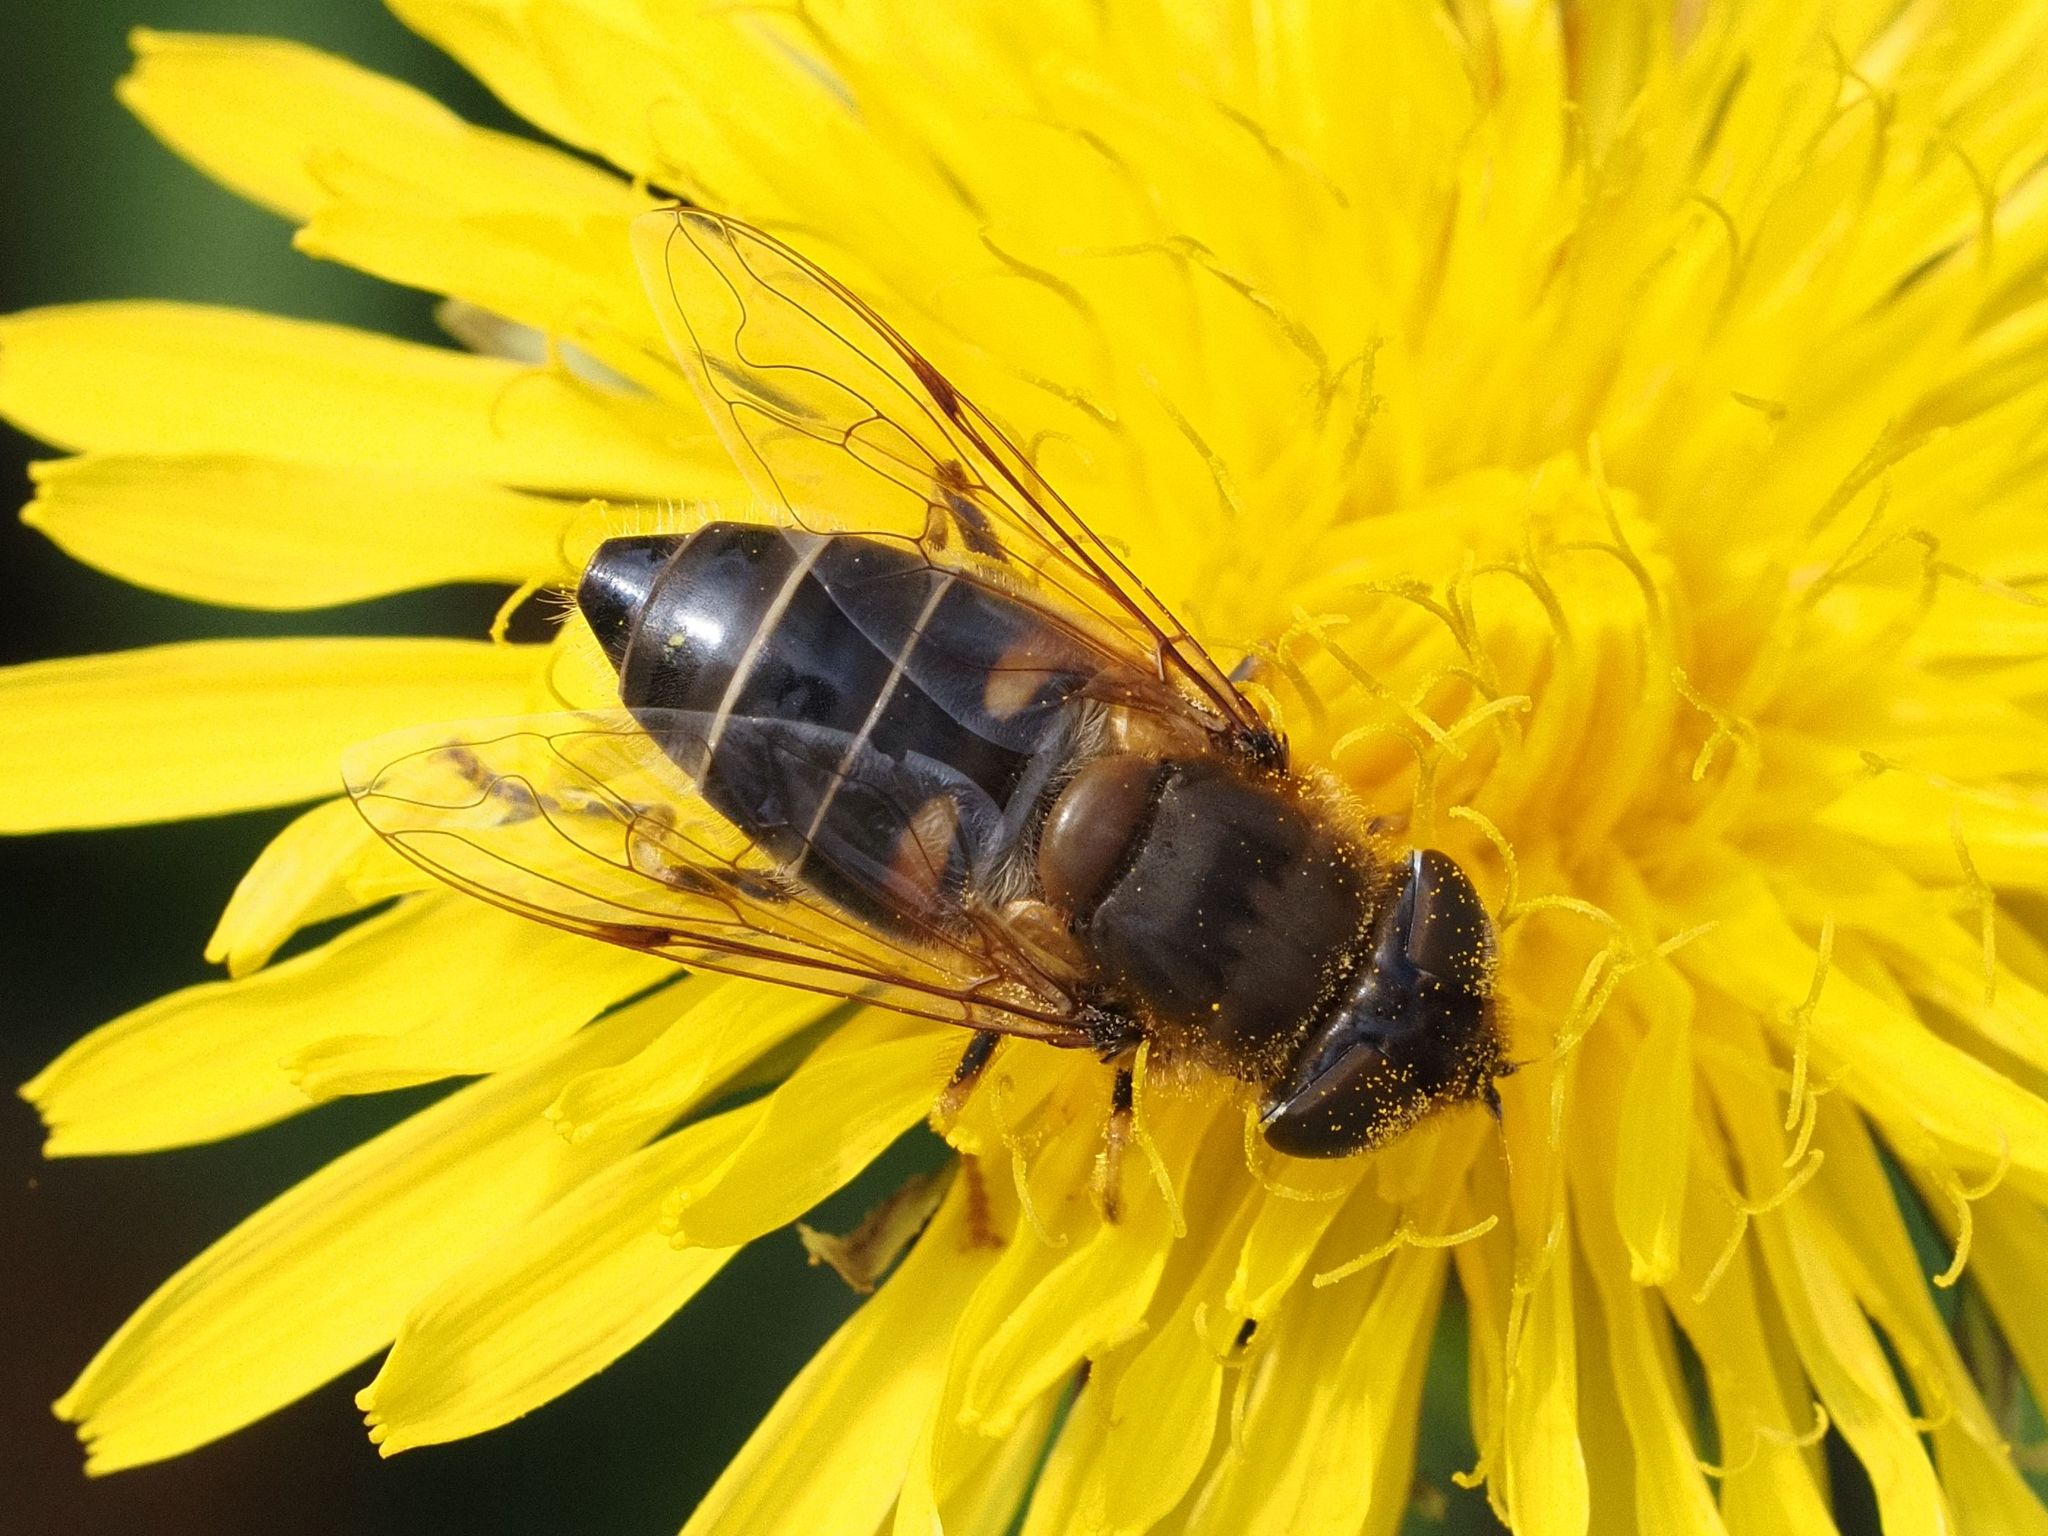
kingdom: Animalia
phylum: Arthropoda
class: Insecta
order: Diptera
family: Syrphidae
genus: Eristalis
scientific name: Eristalis pertinax
